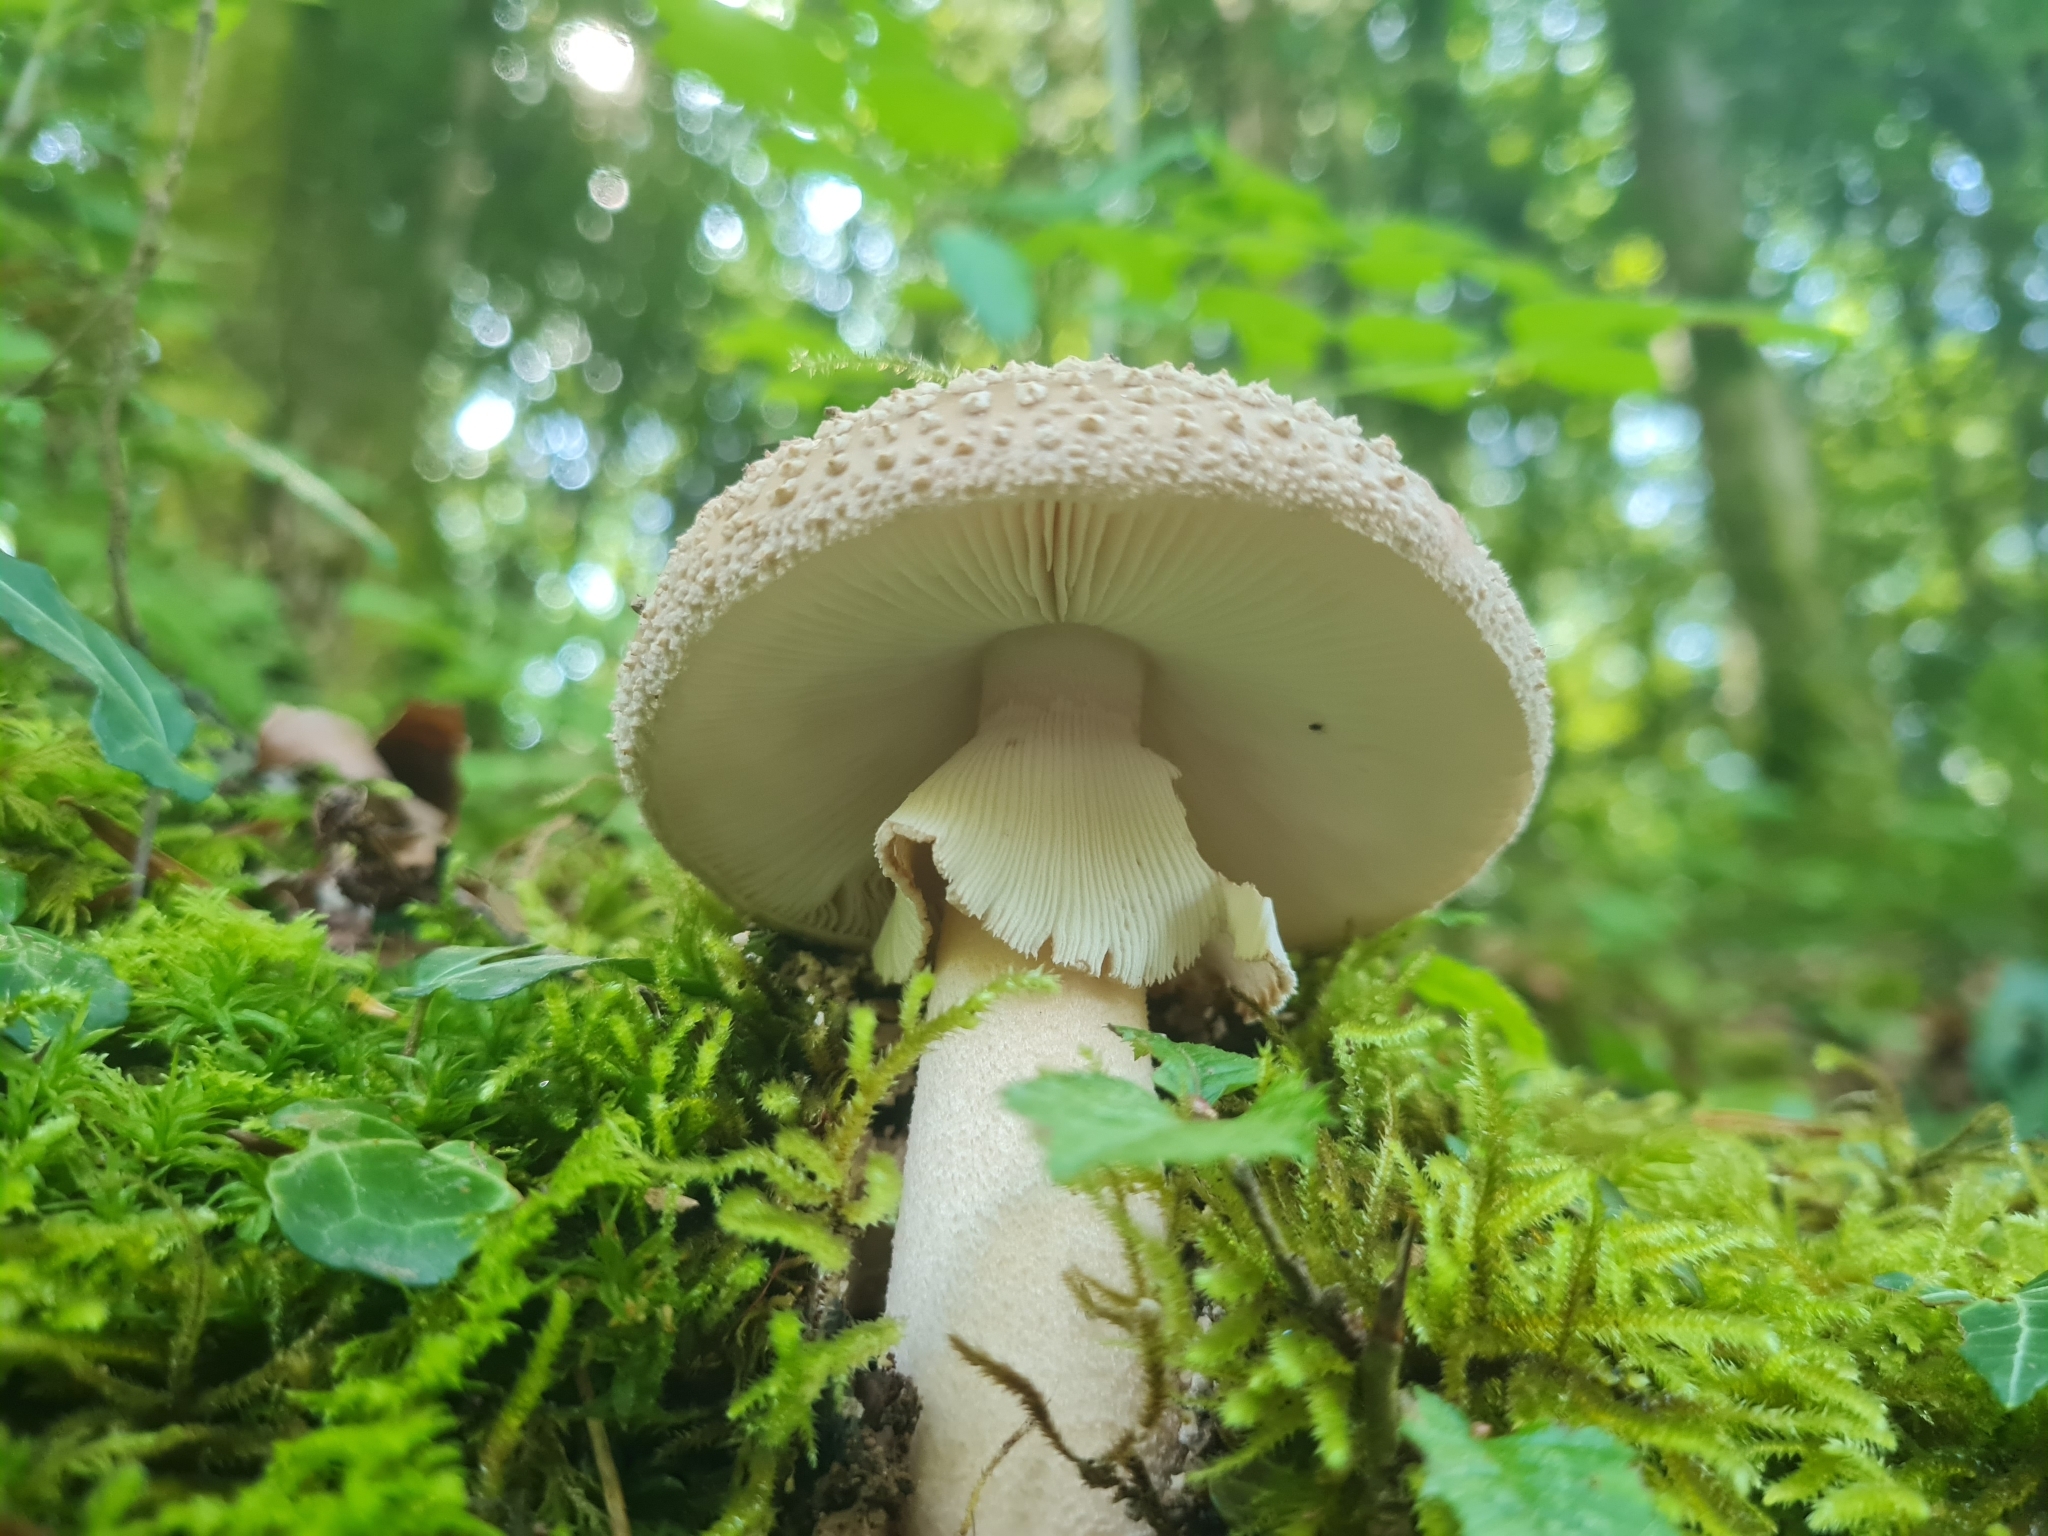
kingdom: Fungi
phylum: Basidiomycota
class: Agaricomycetes
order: Agaricales
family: Amanitaceae
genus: Amanita
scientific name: Amanita rubescens
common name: Blusher
